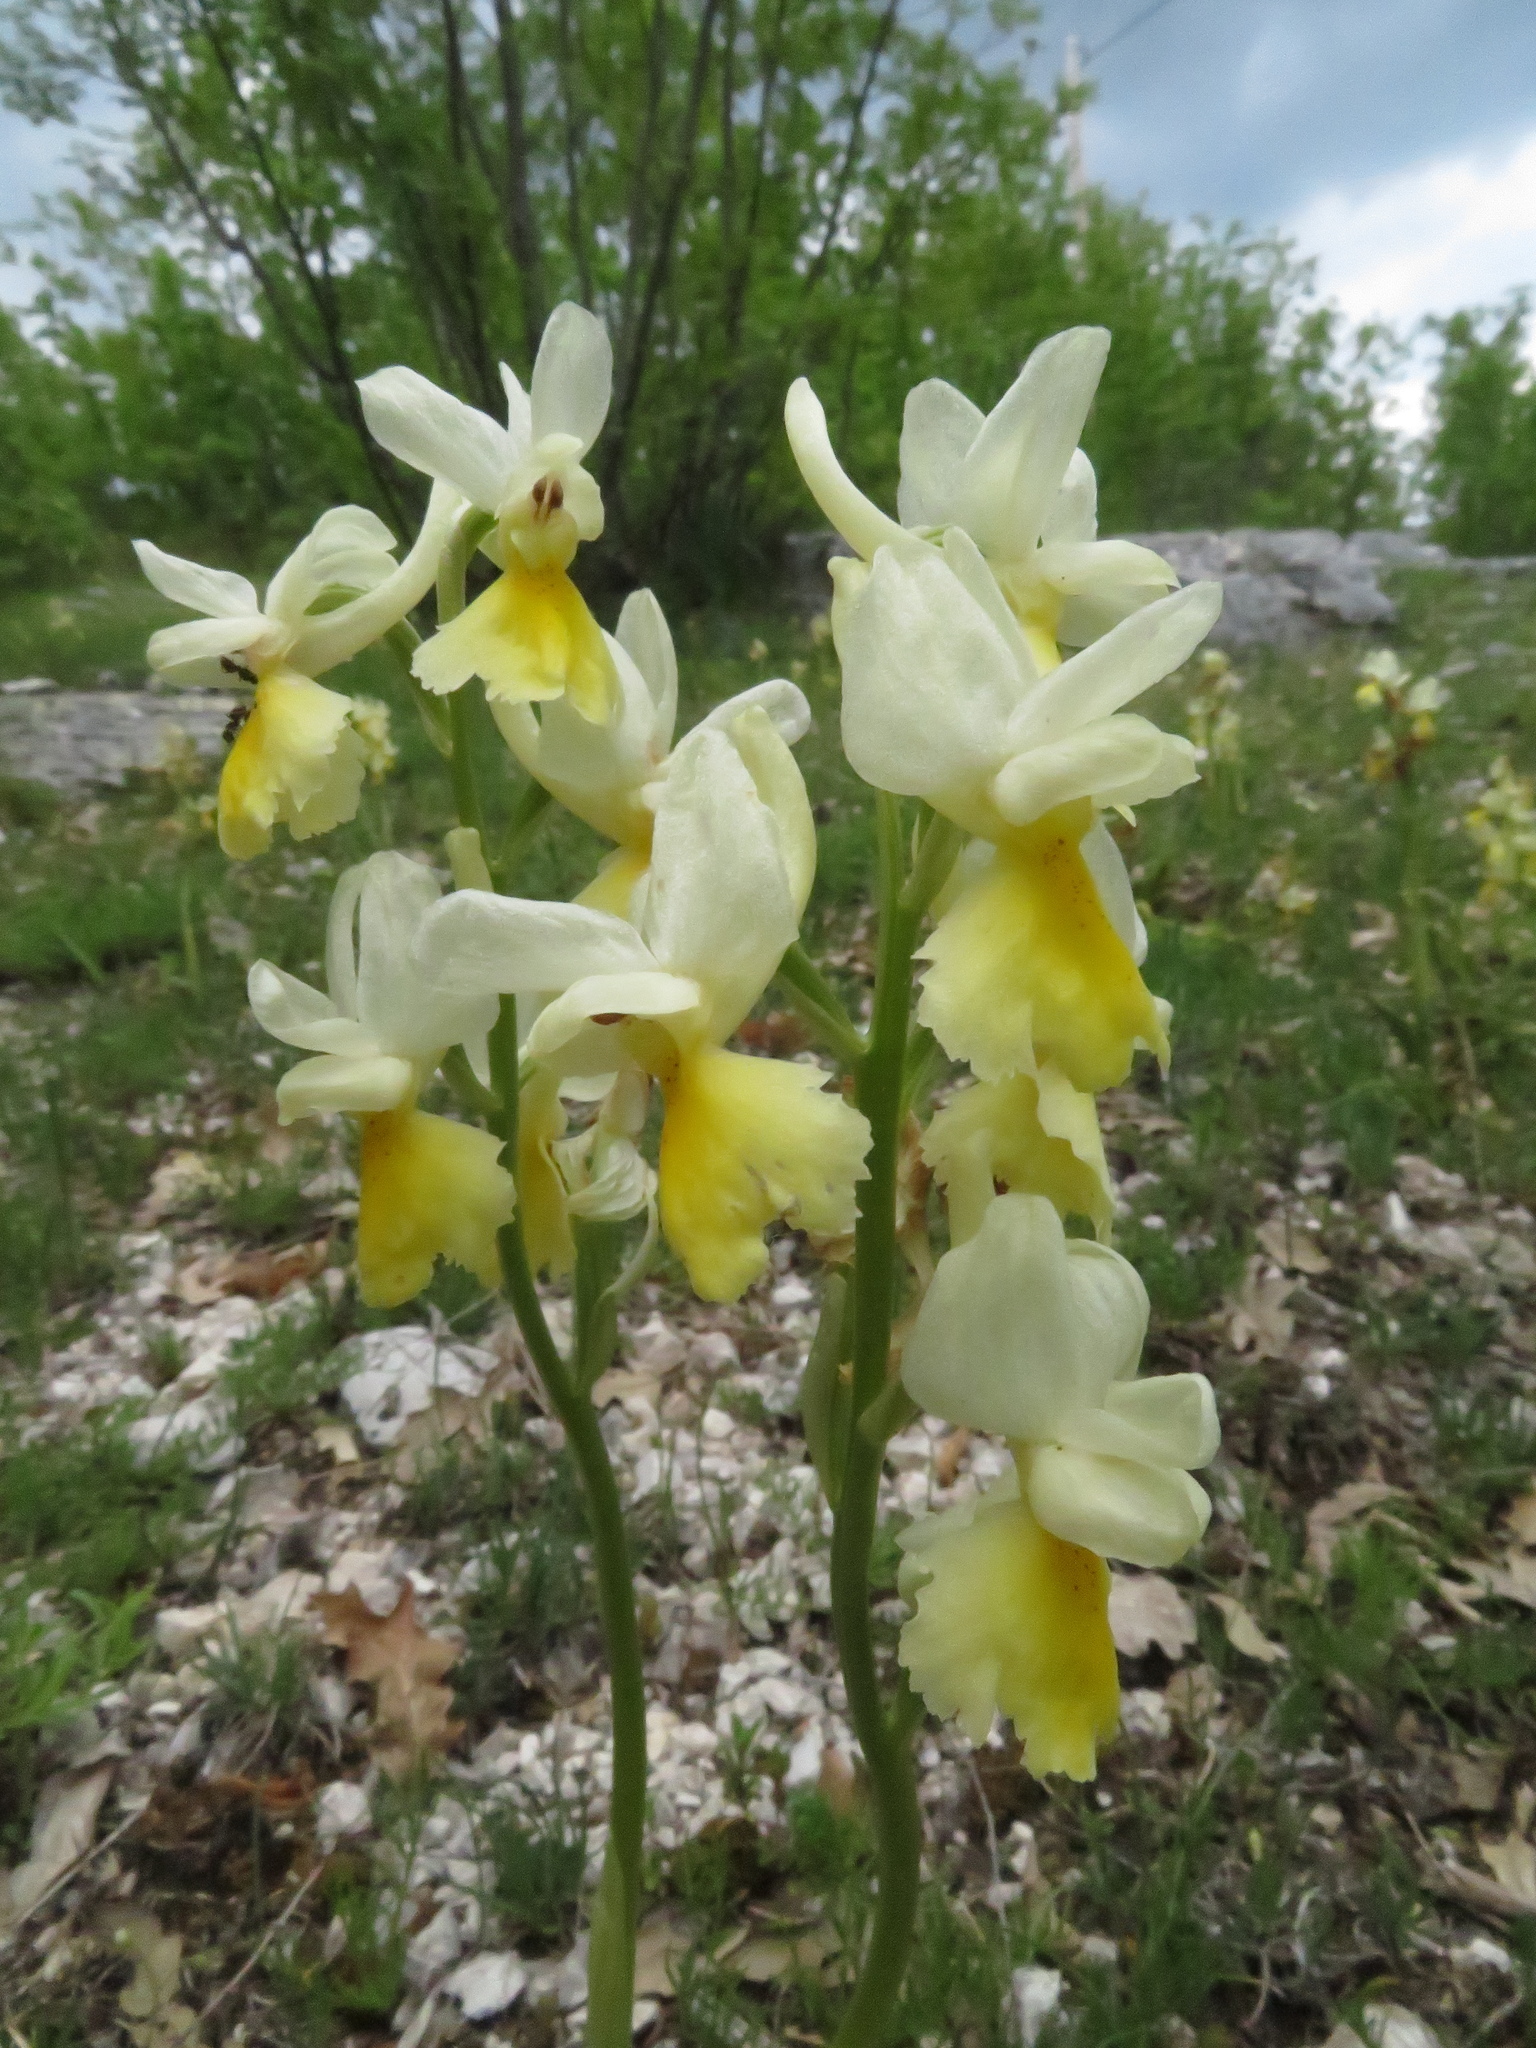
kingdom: Plantae
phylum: Tracheophyta
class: Liliopsida
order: Asparagales
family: Orchidaceae
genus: Orchis
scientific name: Orchis pauciflora
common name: Few-flowered orchid
